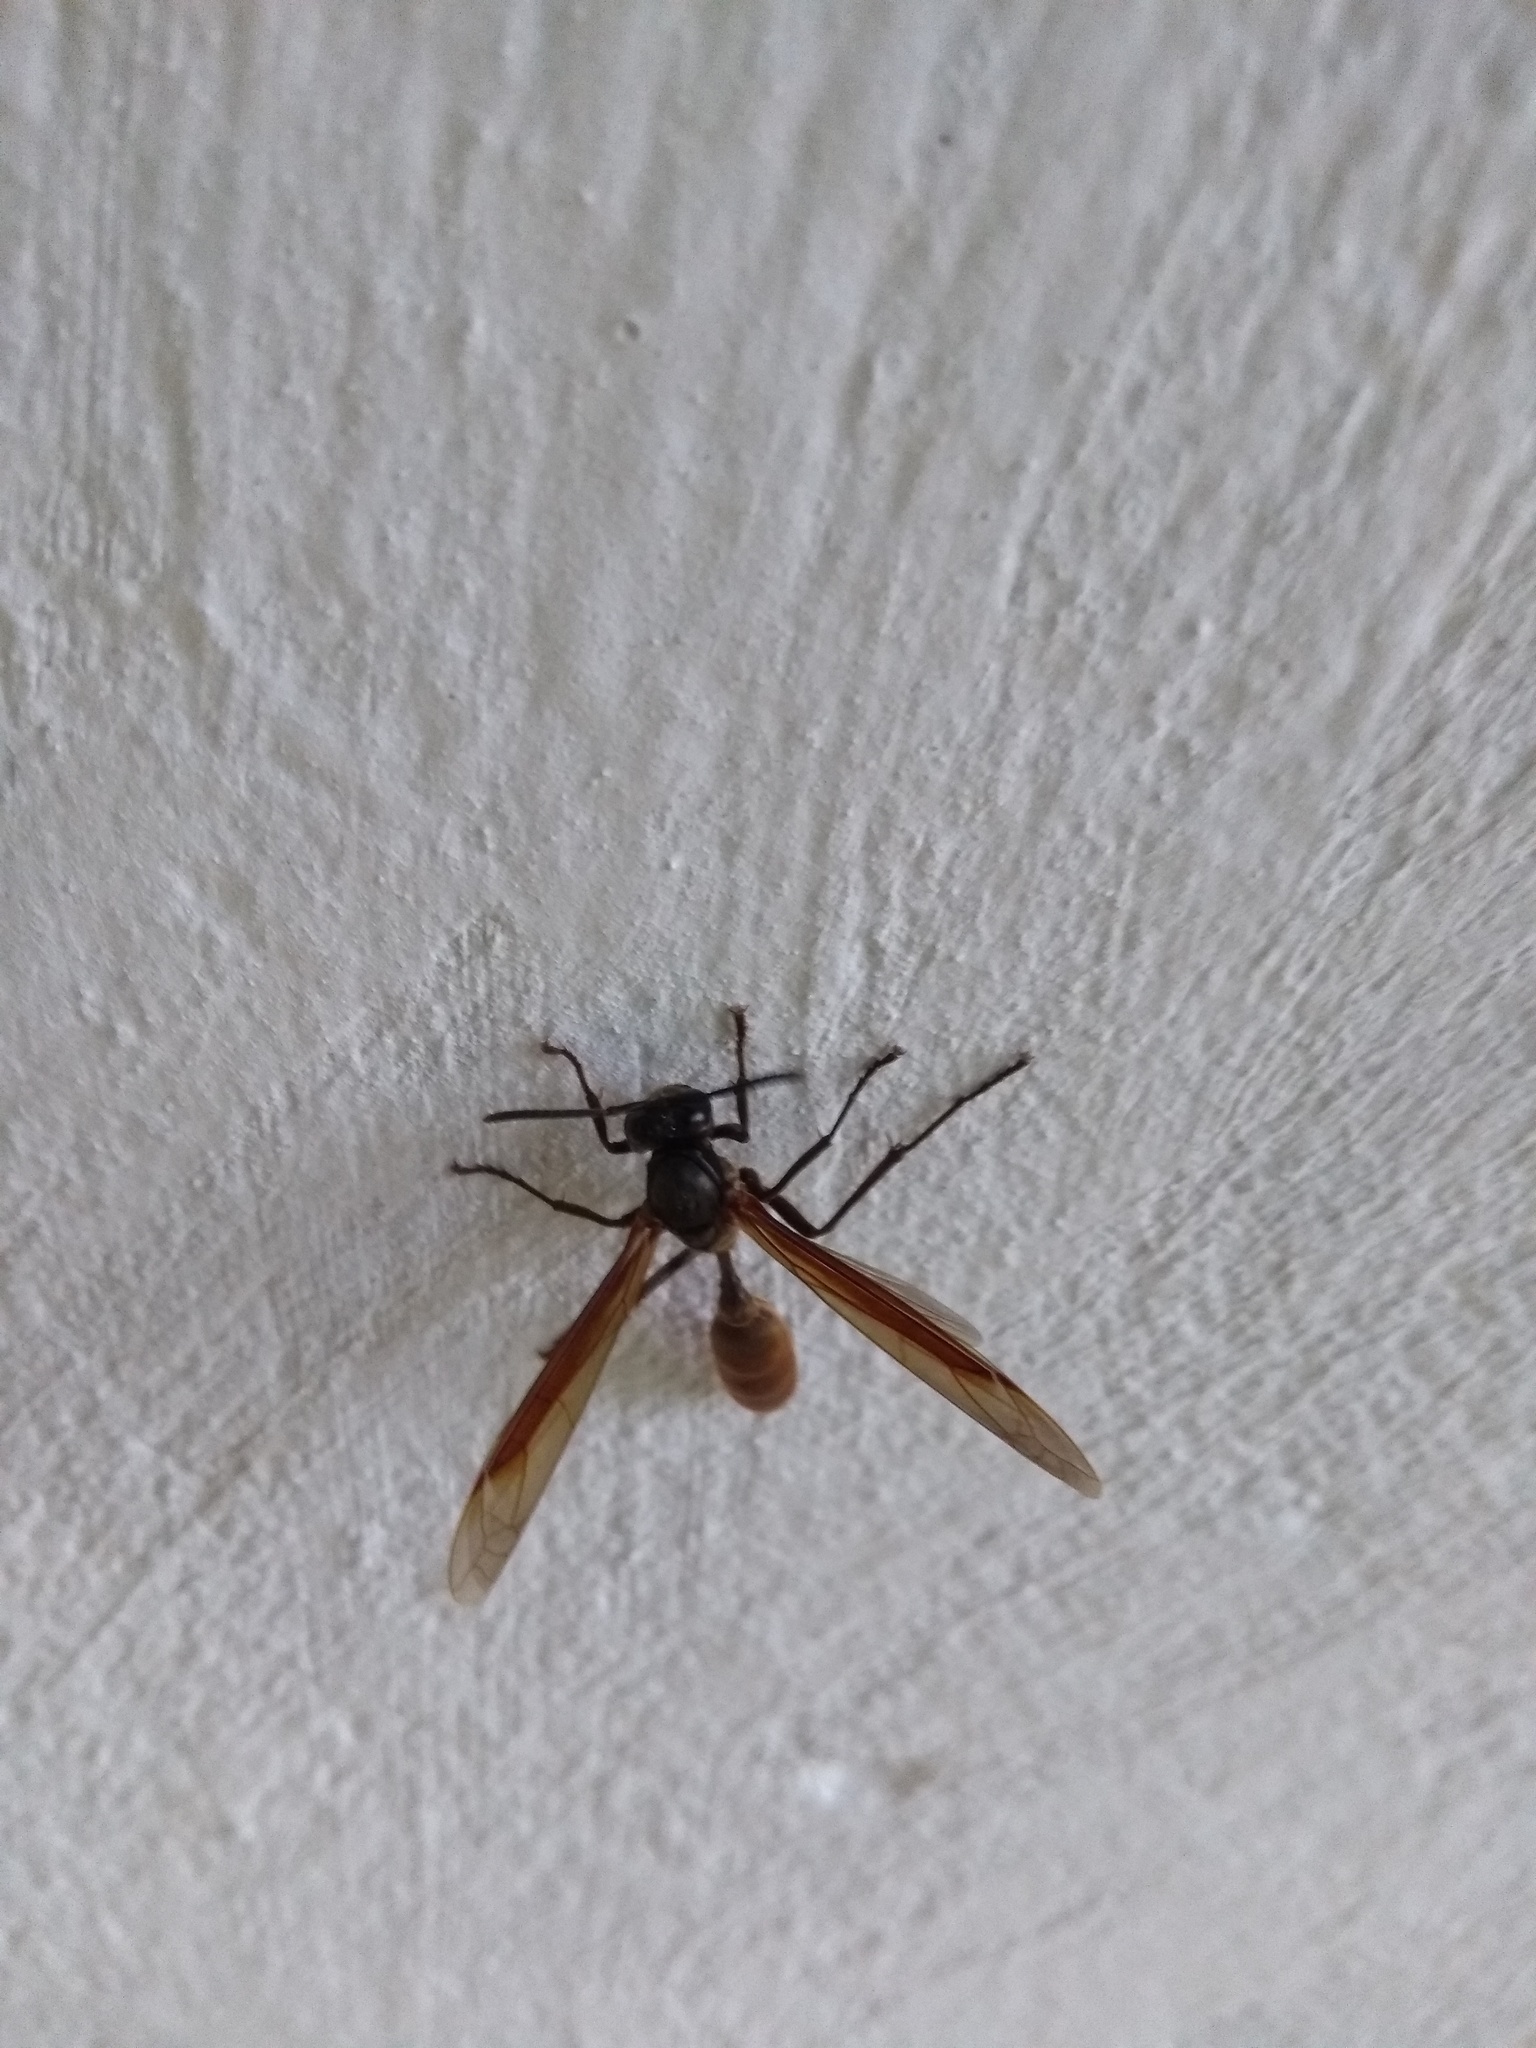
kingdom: Animalia
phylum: Arthropoda
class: Insecta
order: Hymenoptera
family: Vespidae
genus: Apoica
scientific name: Apoica thoracica
